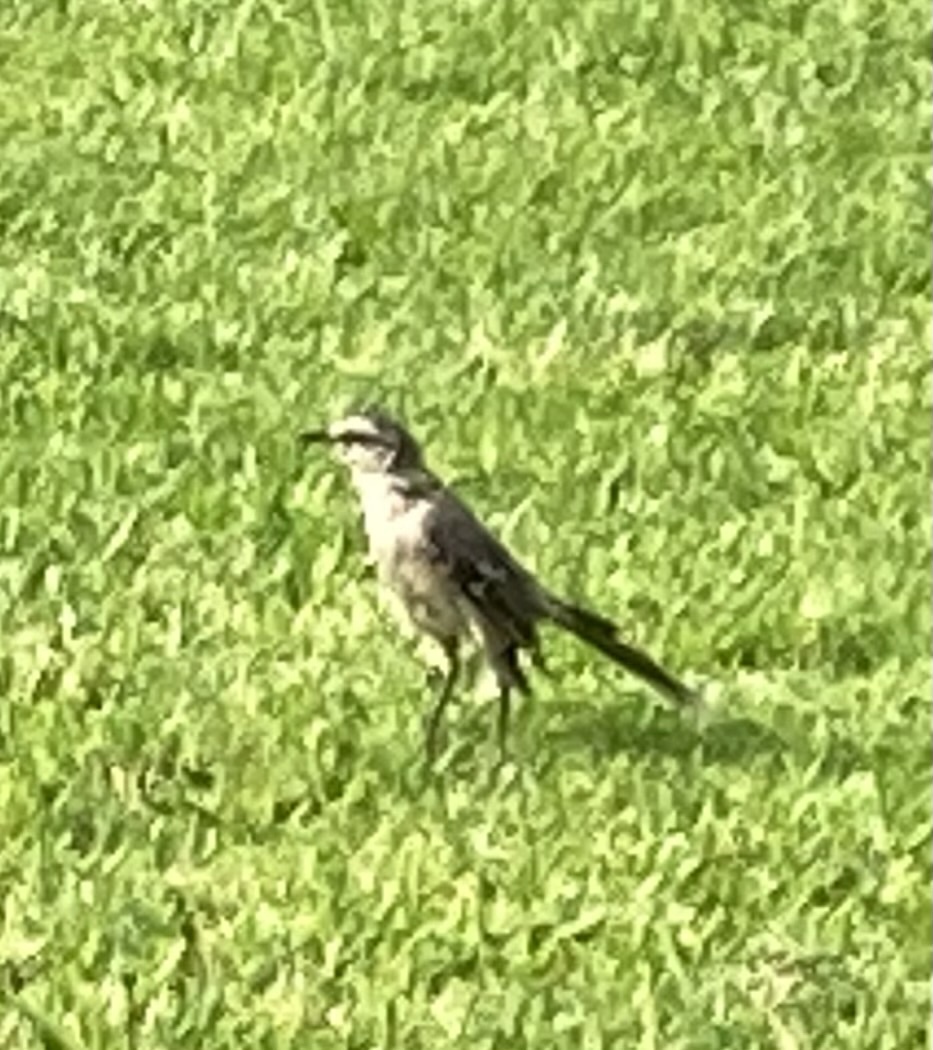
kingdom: Animalia
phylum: Chordata
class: Aves
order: Passeriformes
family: Mimidae
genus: Mimus
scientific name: Mimus saturninus
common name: Chalk-browed mockingbird
